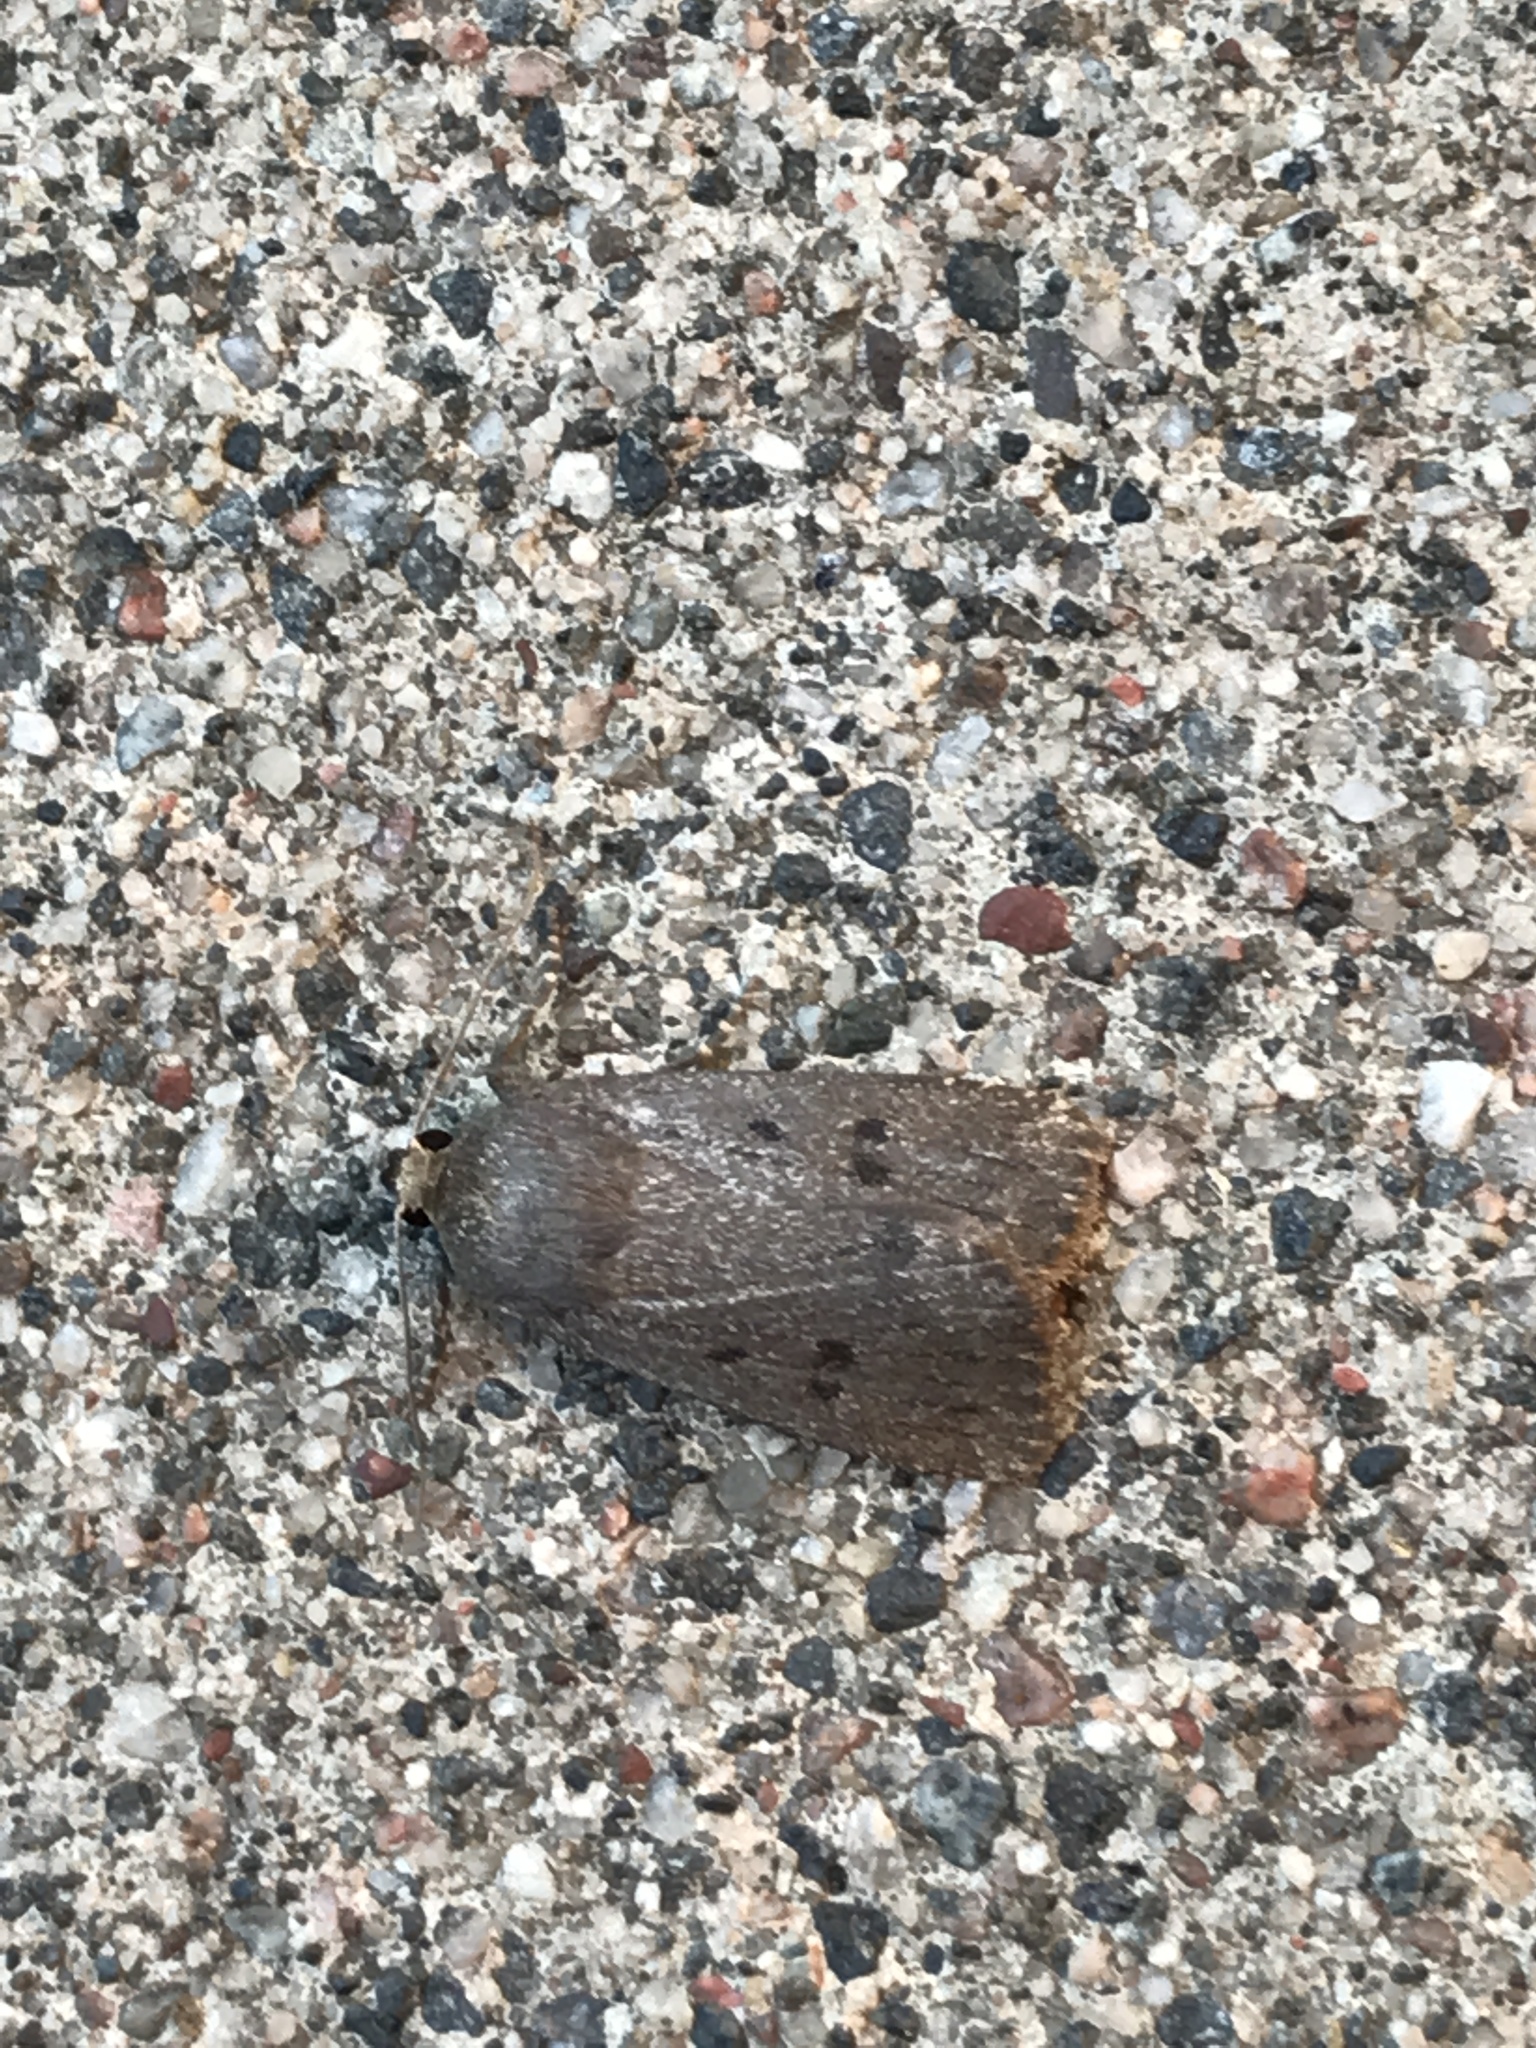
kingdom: Animalia
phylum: Arthropoda
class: Insecta
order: Lepidoptera
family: Noctuidae
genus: Amphipyra
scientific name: Amphipyra tragopoginis
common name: Mouse moth
